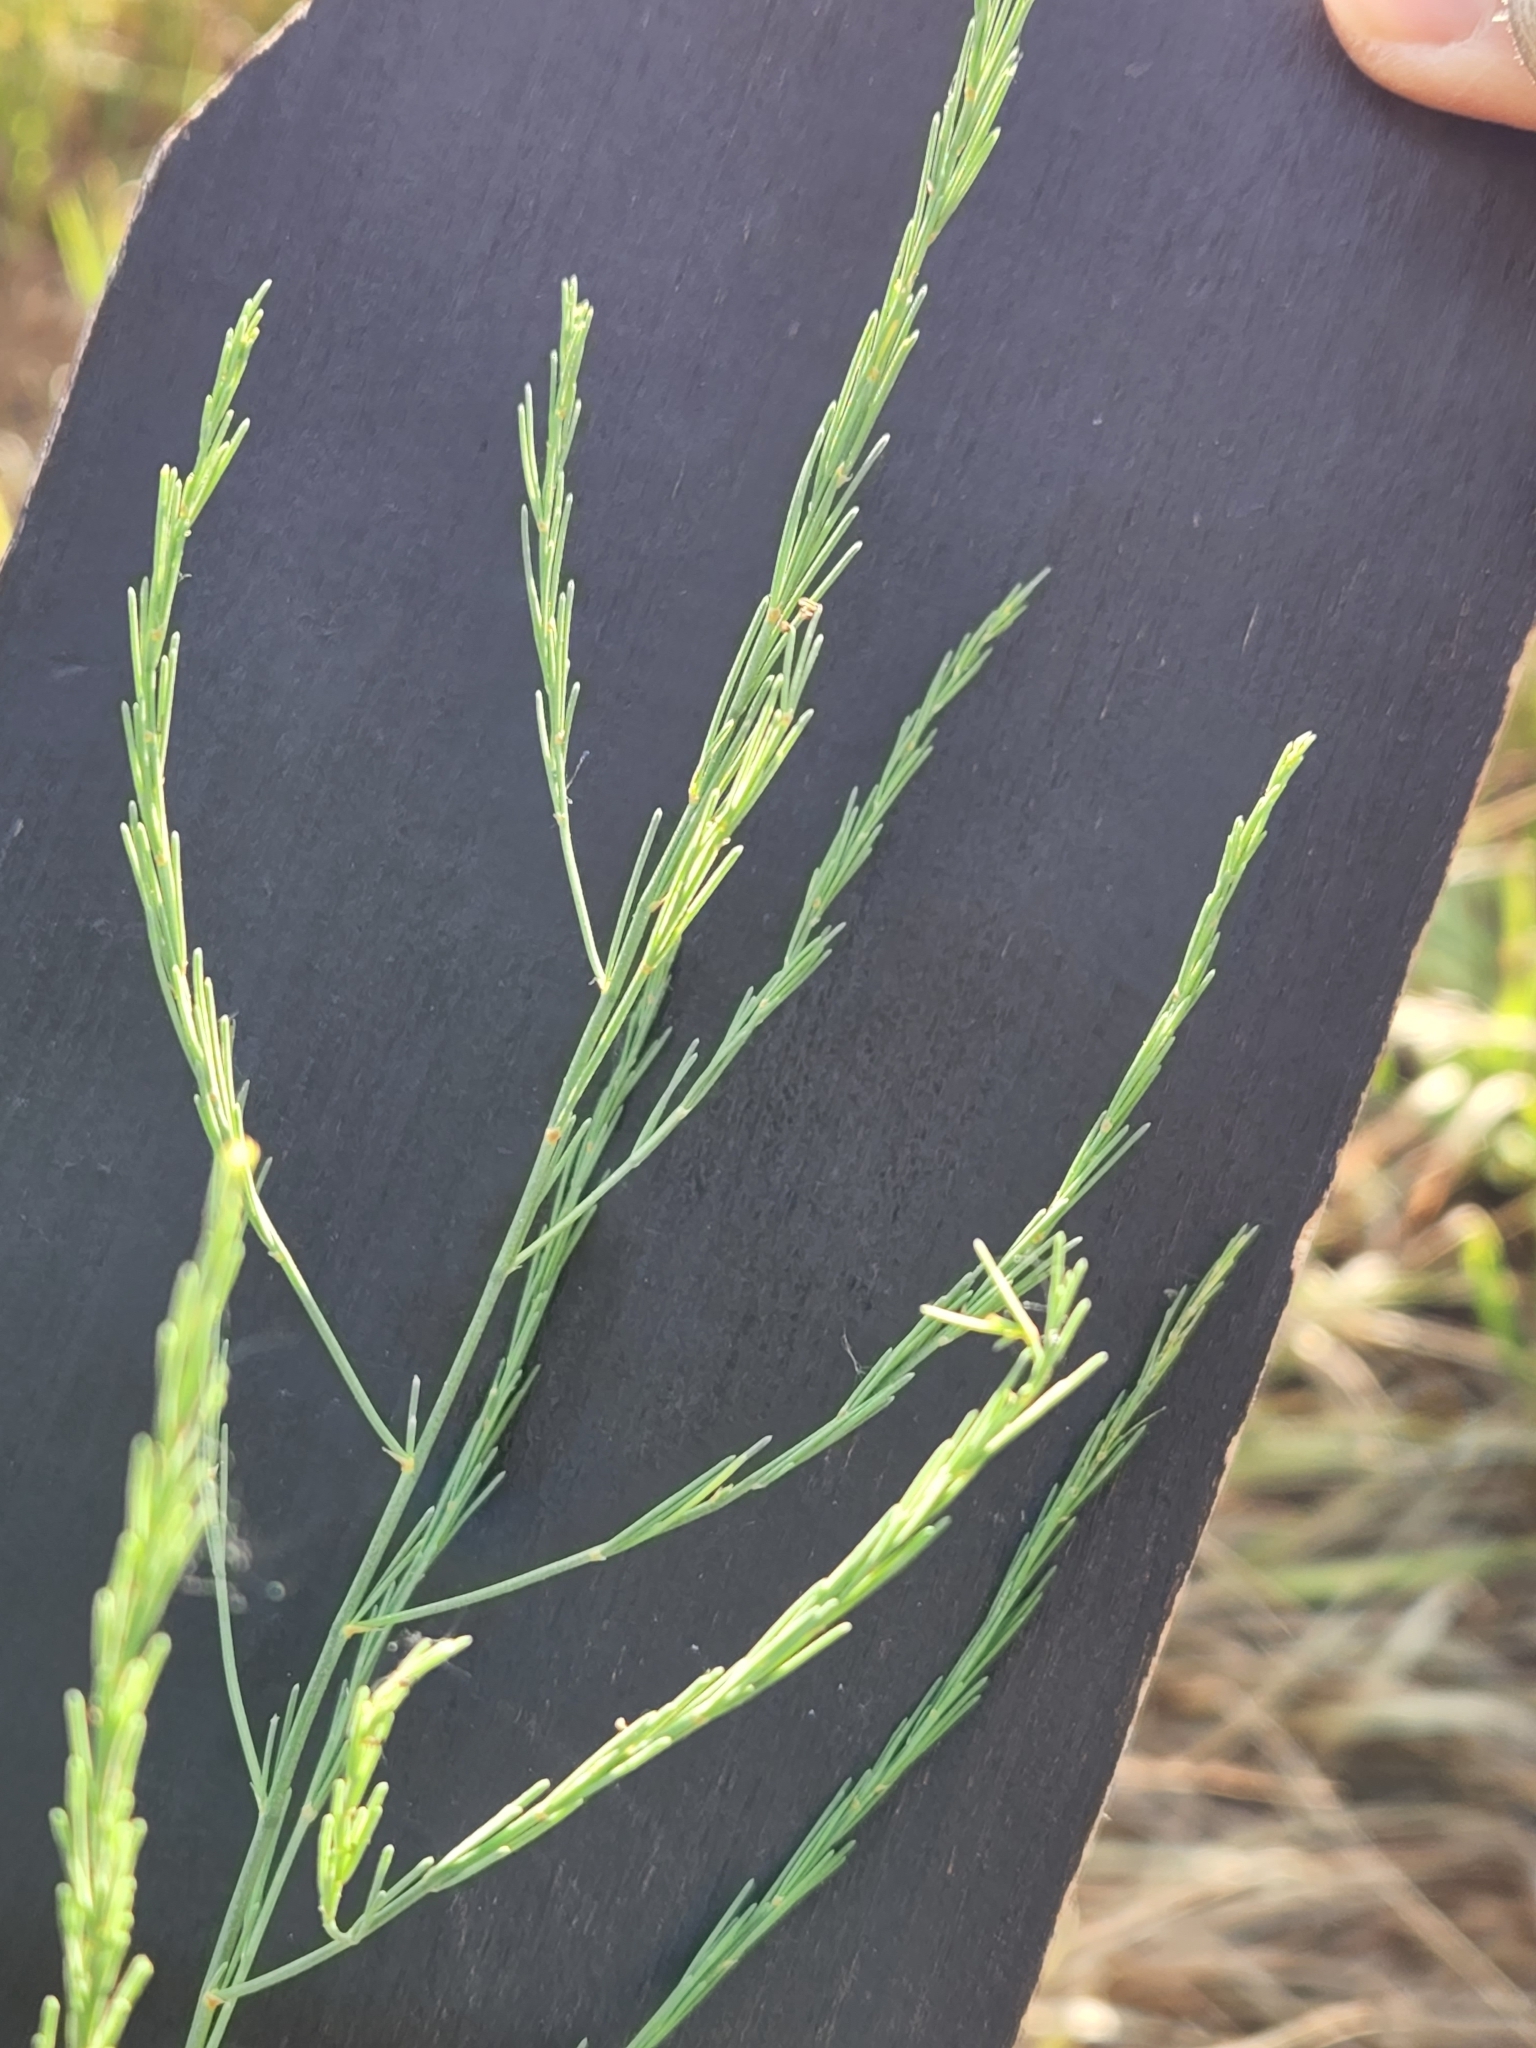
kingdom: Plantae
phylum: Tracheophyta
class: Liliopsida
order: Asparagales
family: Asparagaceae
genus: Asparagus
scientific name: Asparagus officinalis
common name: Garden asparagus
